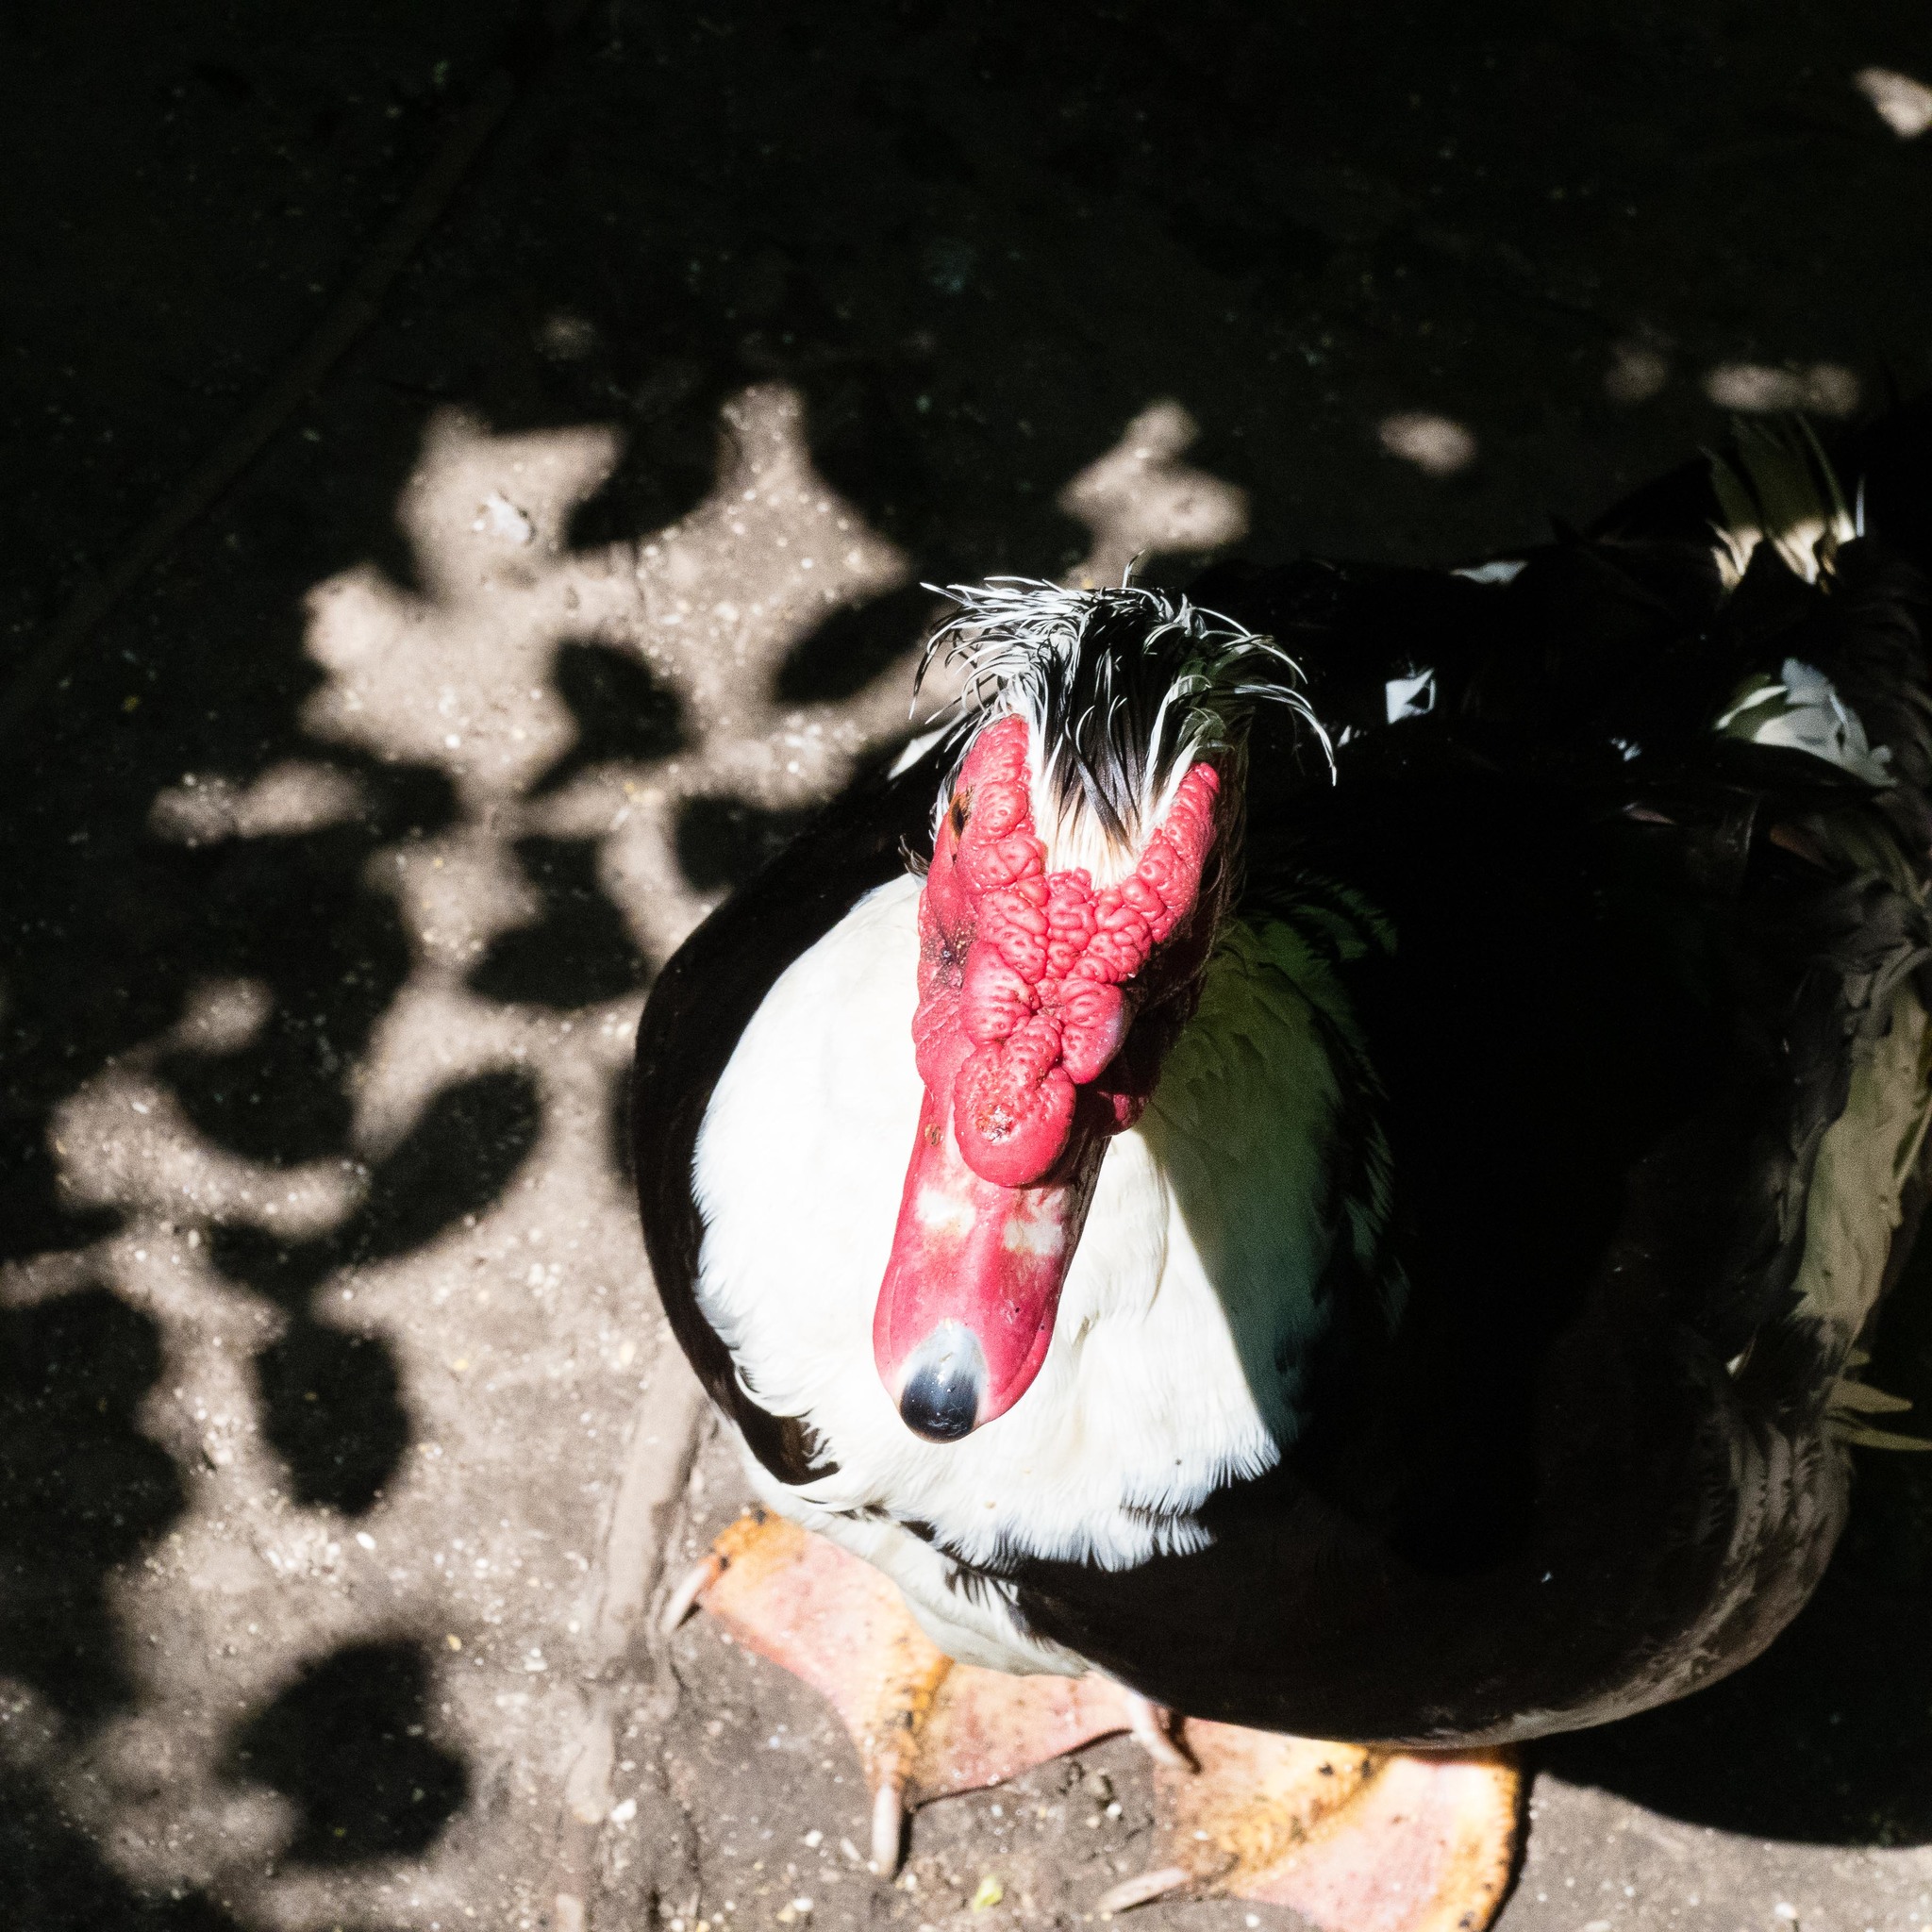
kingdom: Animalia
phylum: Chordata
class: Aves
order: Anseriformes
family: Anatidae
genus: Cairina
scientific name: Cairina moschata
